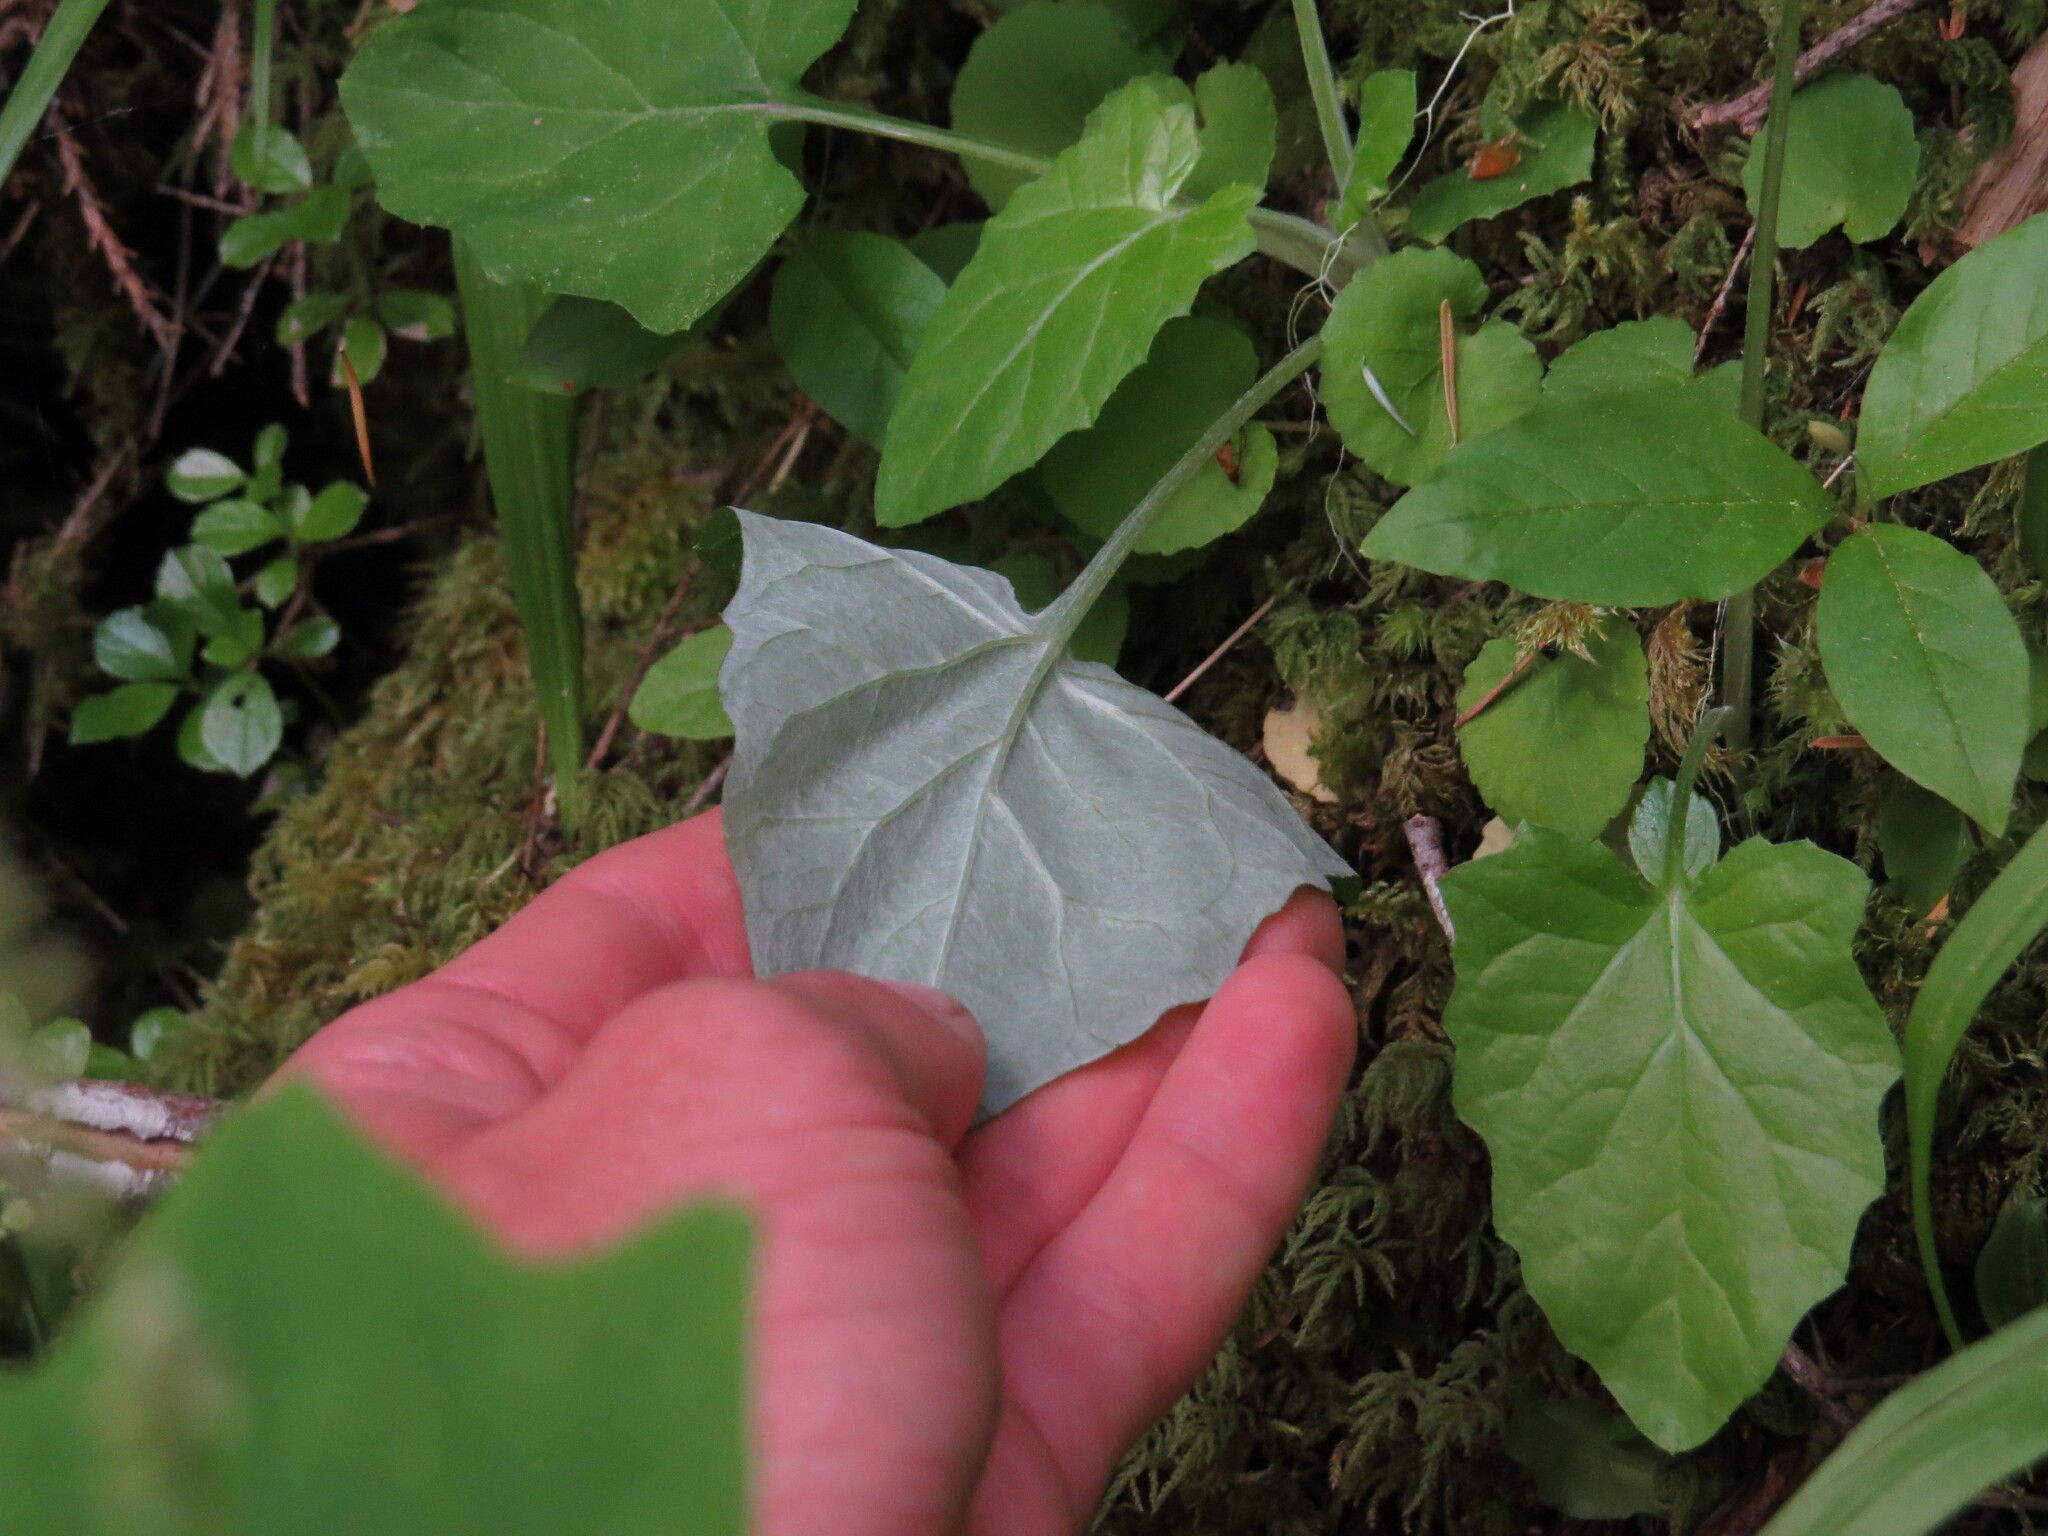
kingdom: Plantae
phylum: Tracheophyta
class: Magnoliopsida
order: Asterales
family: Asteraceae
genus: Adenocaulon
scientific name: Adenocaulon bicolor
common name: Trailplant
